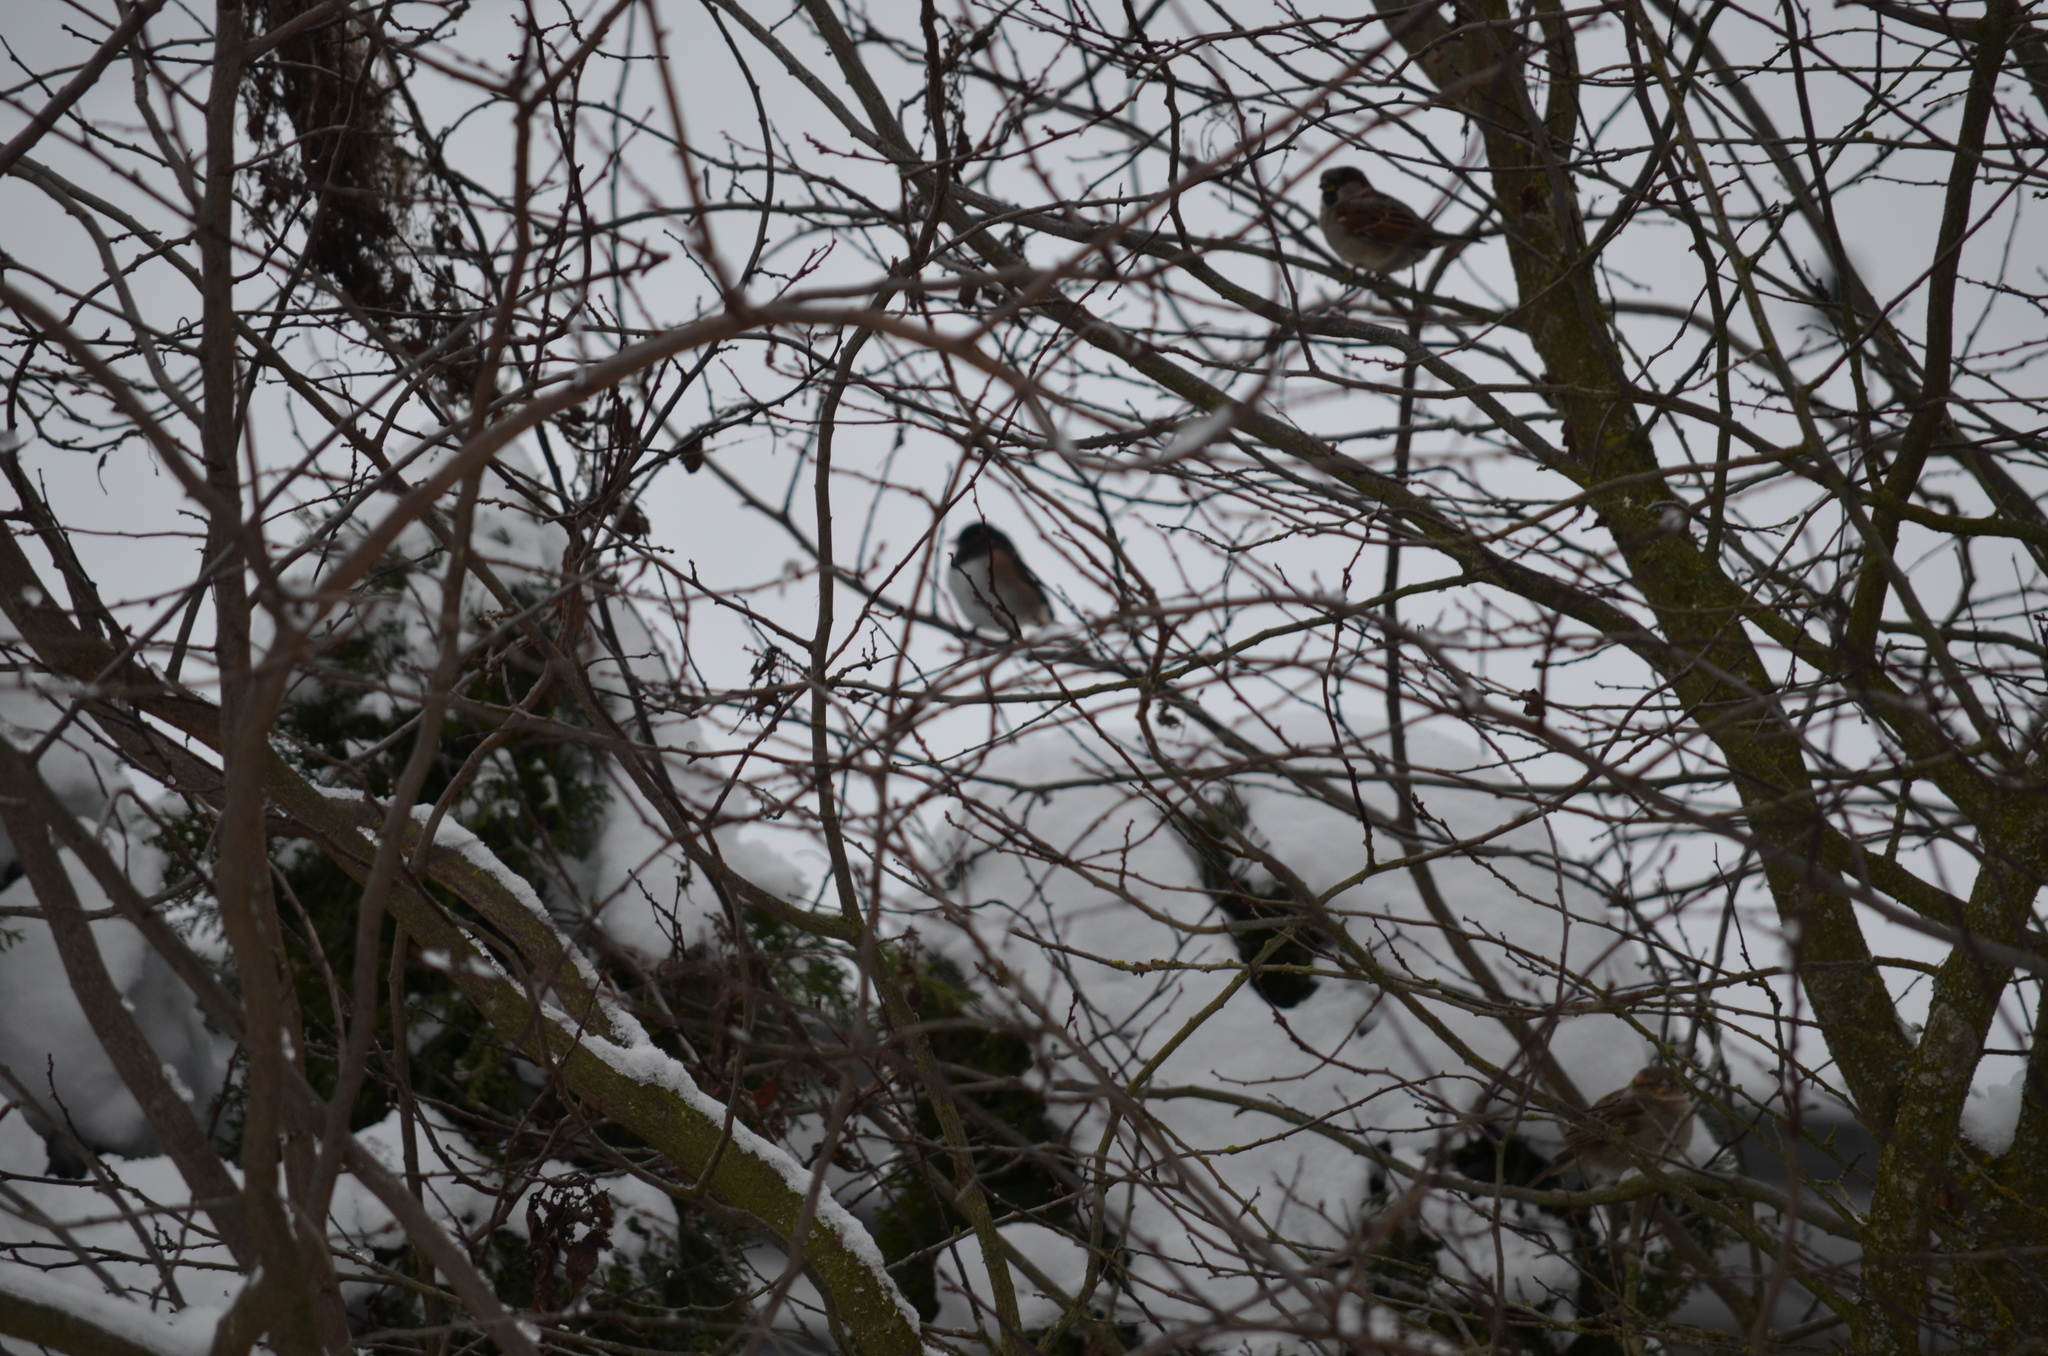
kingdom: Animalia
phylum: Chordata
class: Aves
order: Passeriformes
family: Passeridae
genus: Passer
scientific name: Passer domesticus
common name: House sparrow
